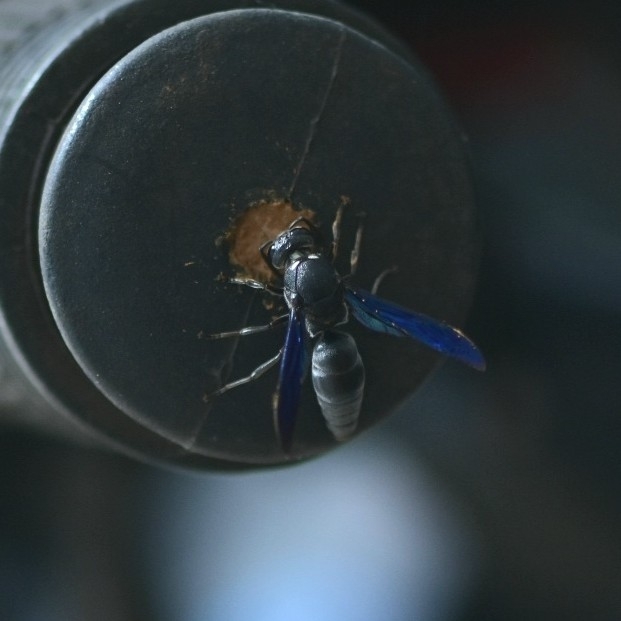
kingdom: Animalia
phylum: Arthropoda
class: Insecta
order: Hymenoptera
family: Eumenidae
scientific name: Eumenidae
